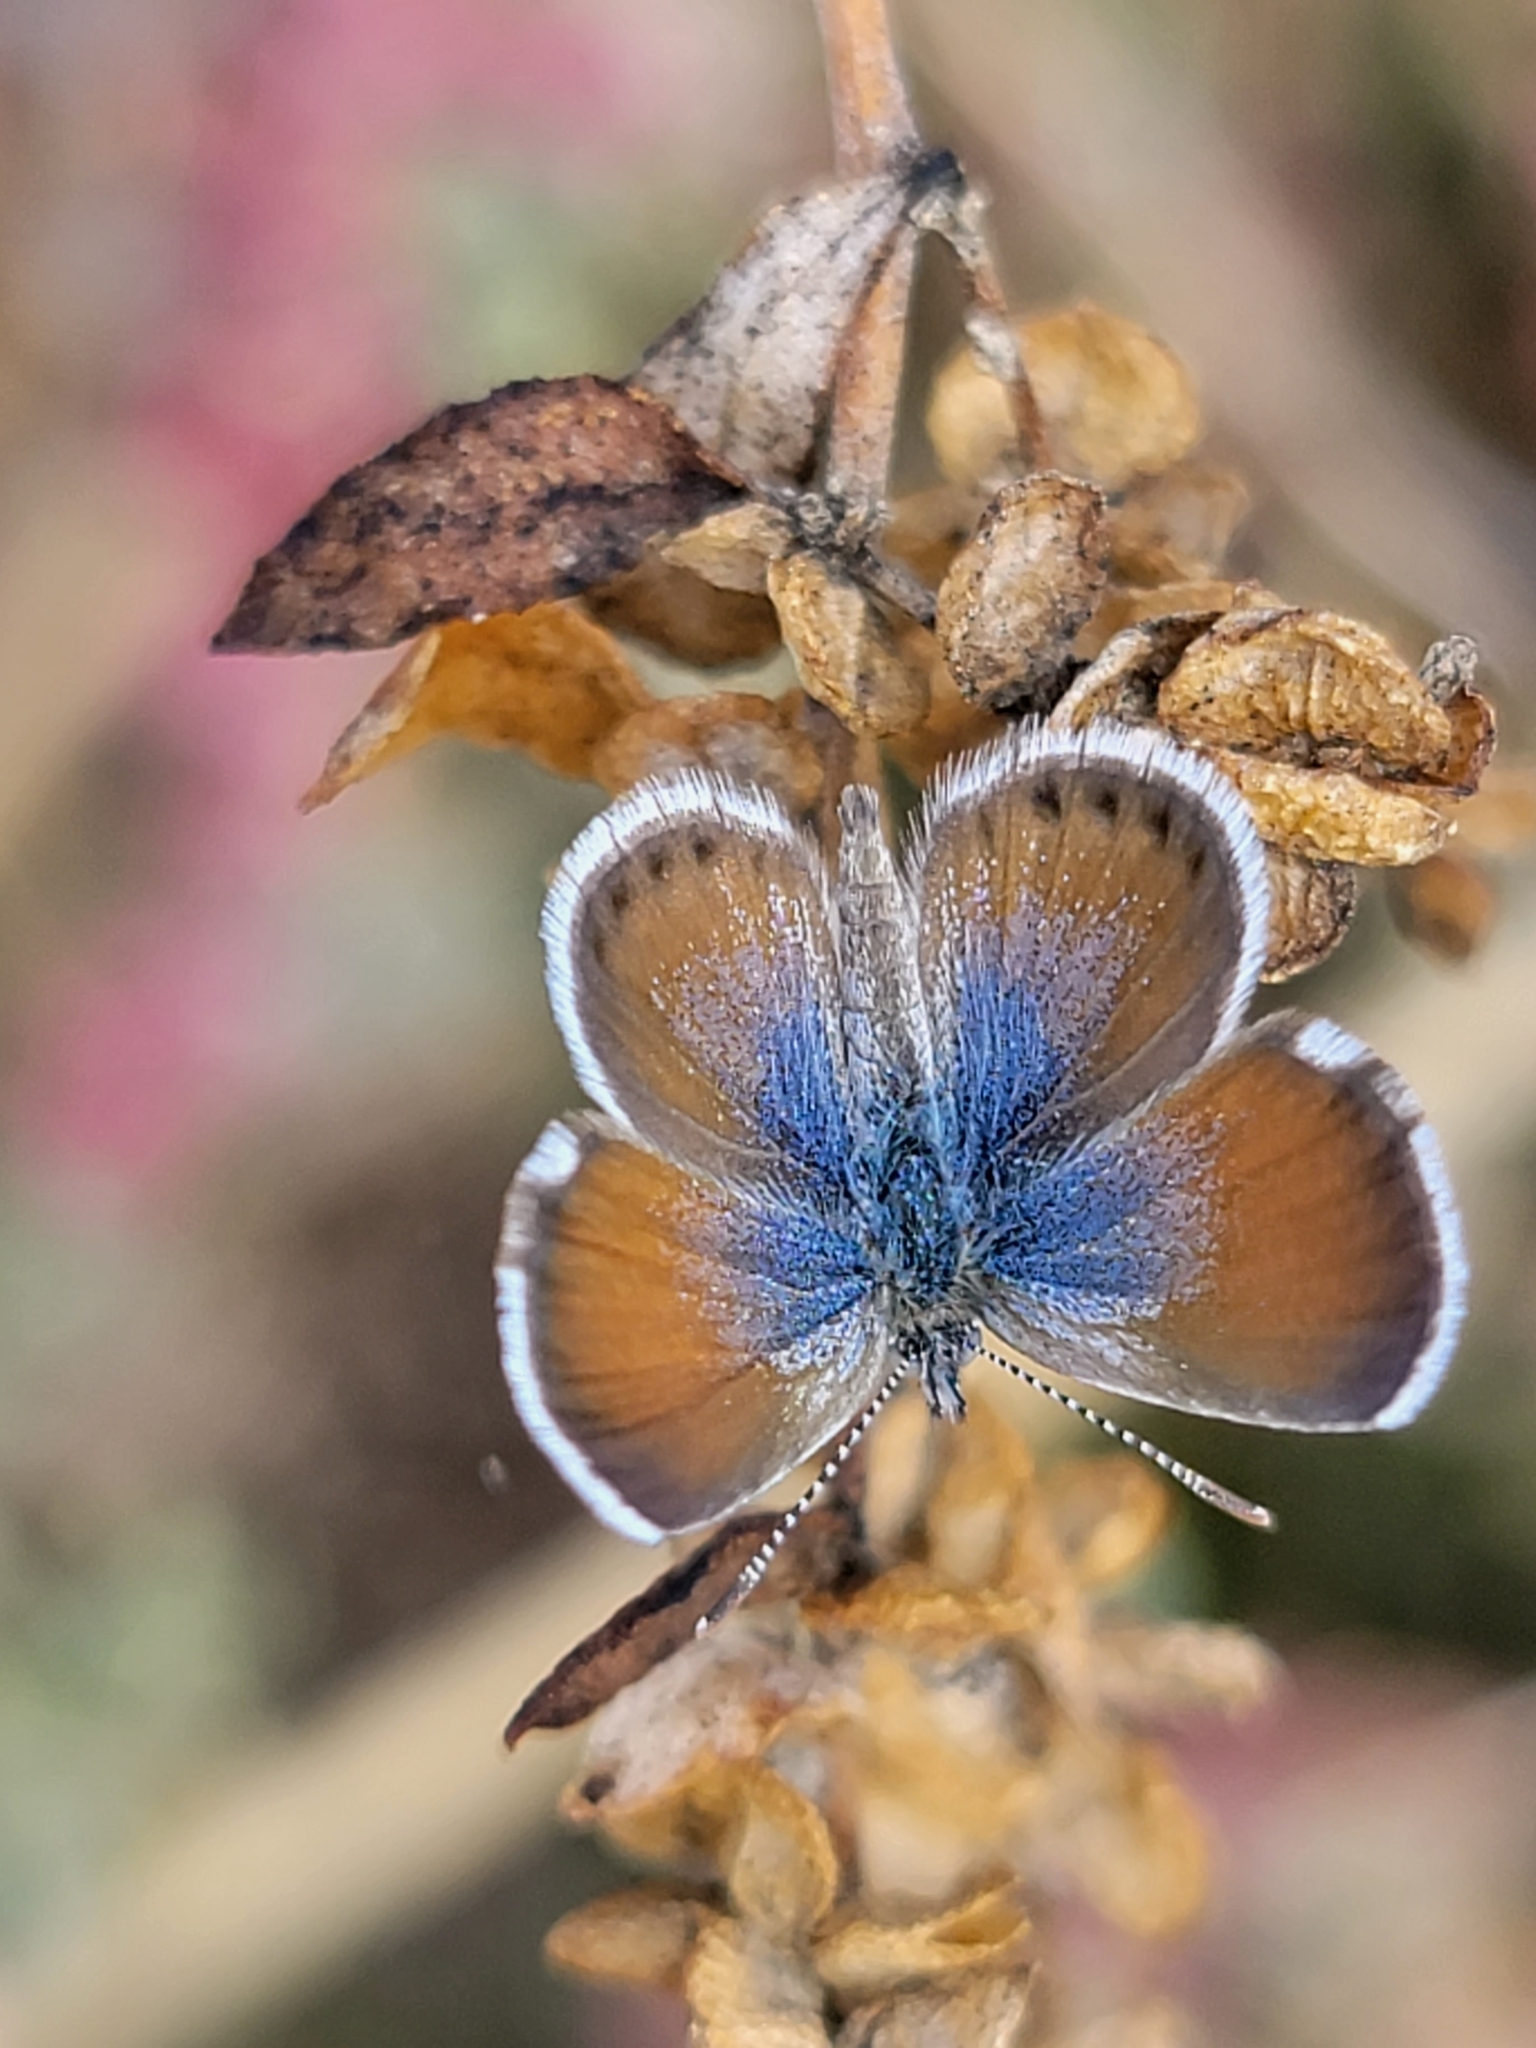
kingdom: Animalia
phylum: Arthropoda
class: Insecta
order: Lepidoptera
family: Lycaenidae
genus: Brephidium
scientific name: Brephidium exilis
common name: Pygmy blue
